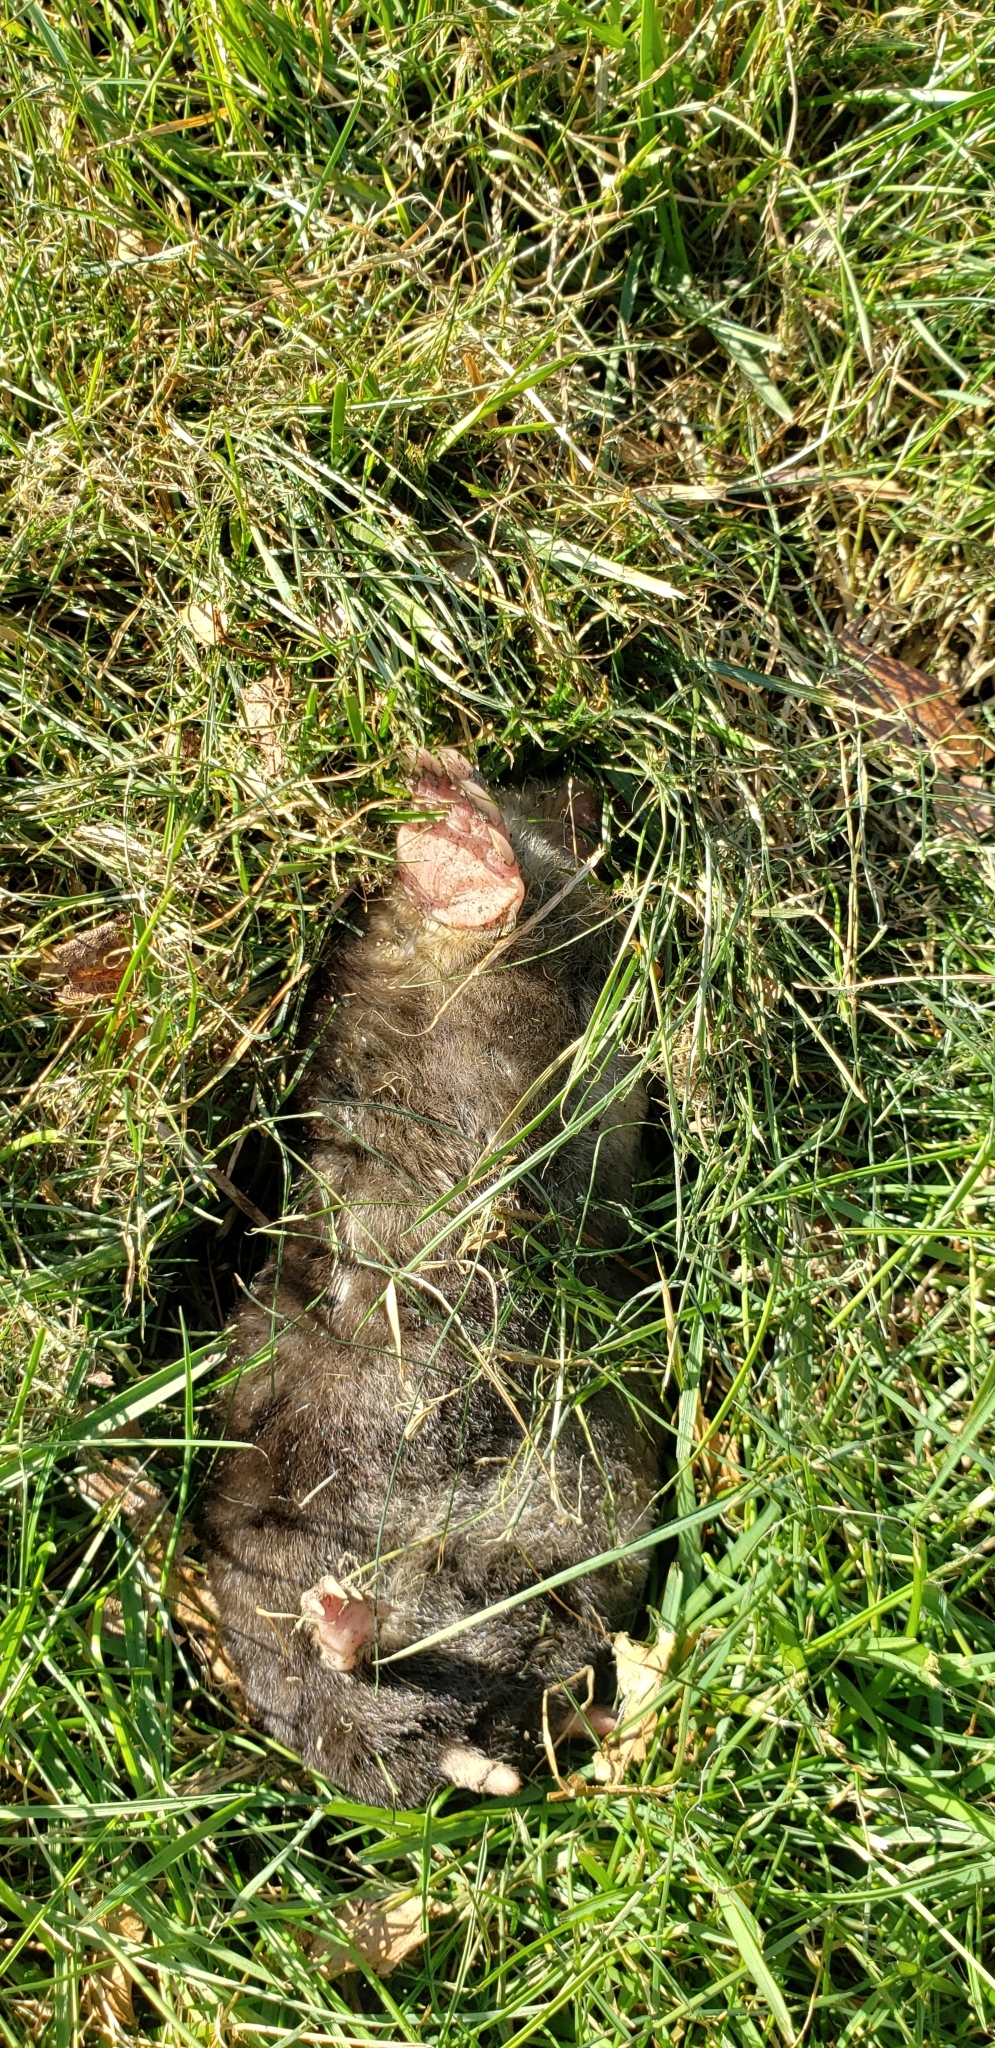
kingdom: Animalia
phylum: Chordata
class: Mammalia
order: Soricomorpha
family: Talpidae
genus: Scalopus
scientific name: Scalopus aquaticus
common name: Eastern mole
